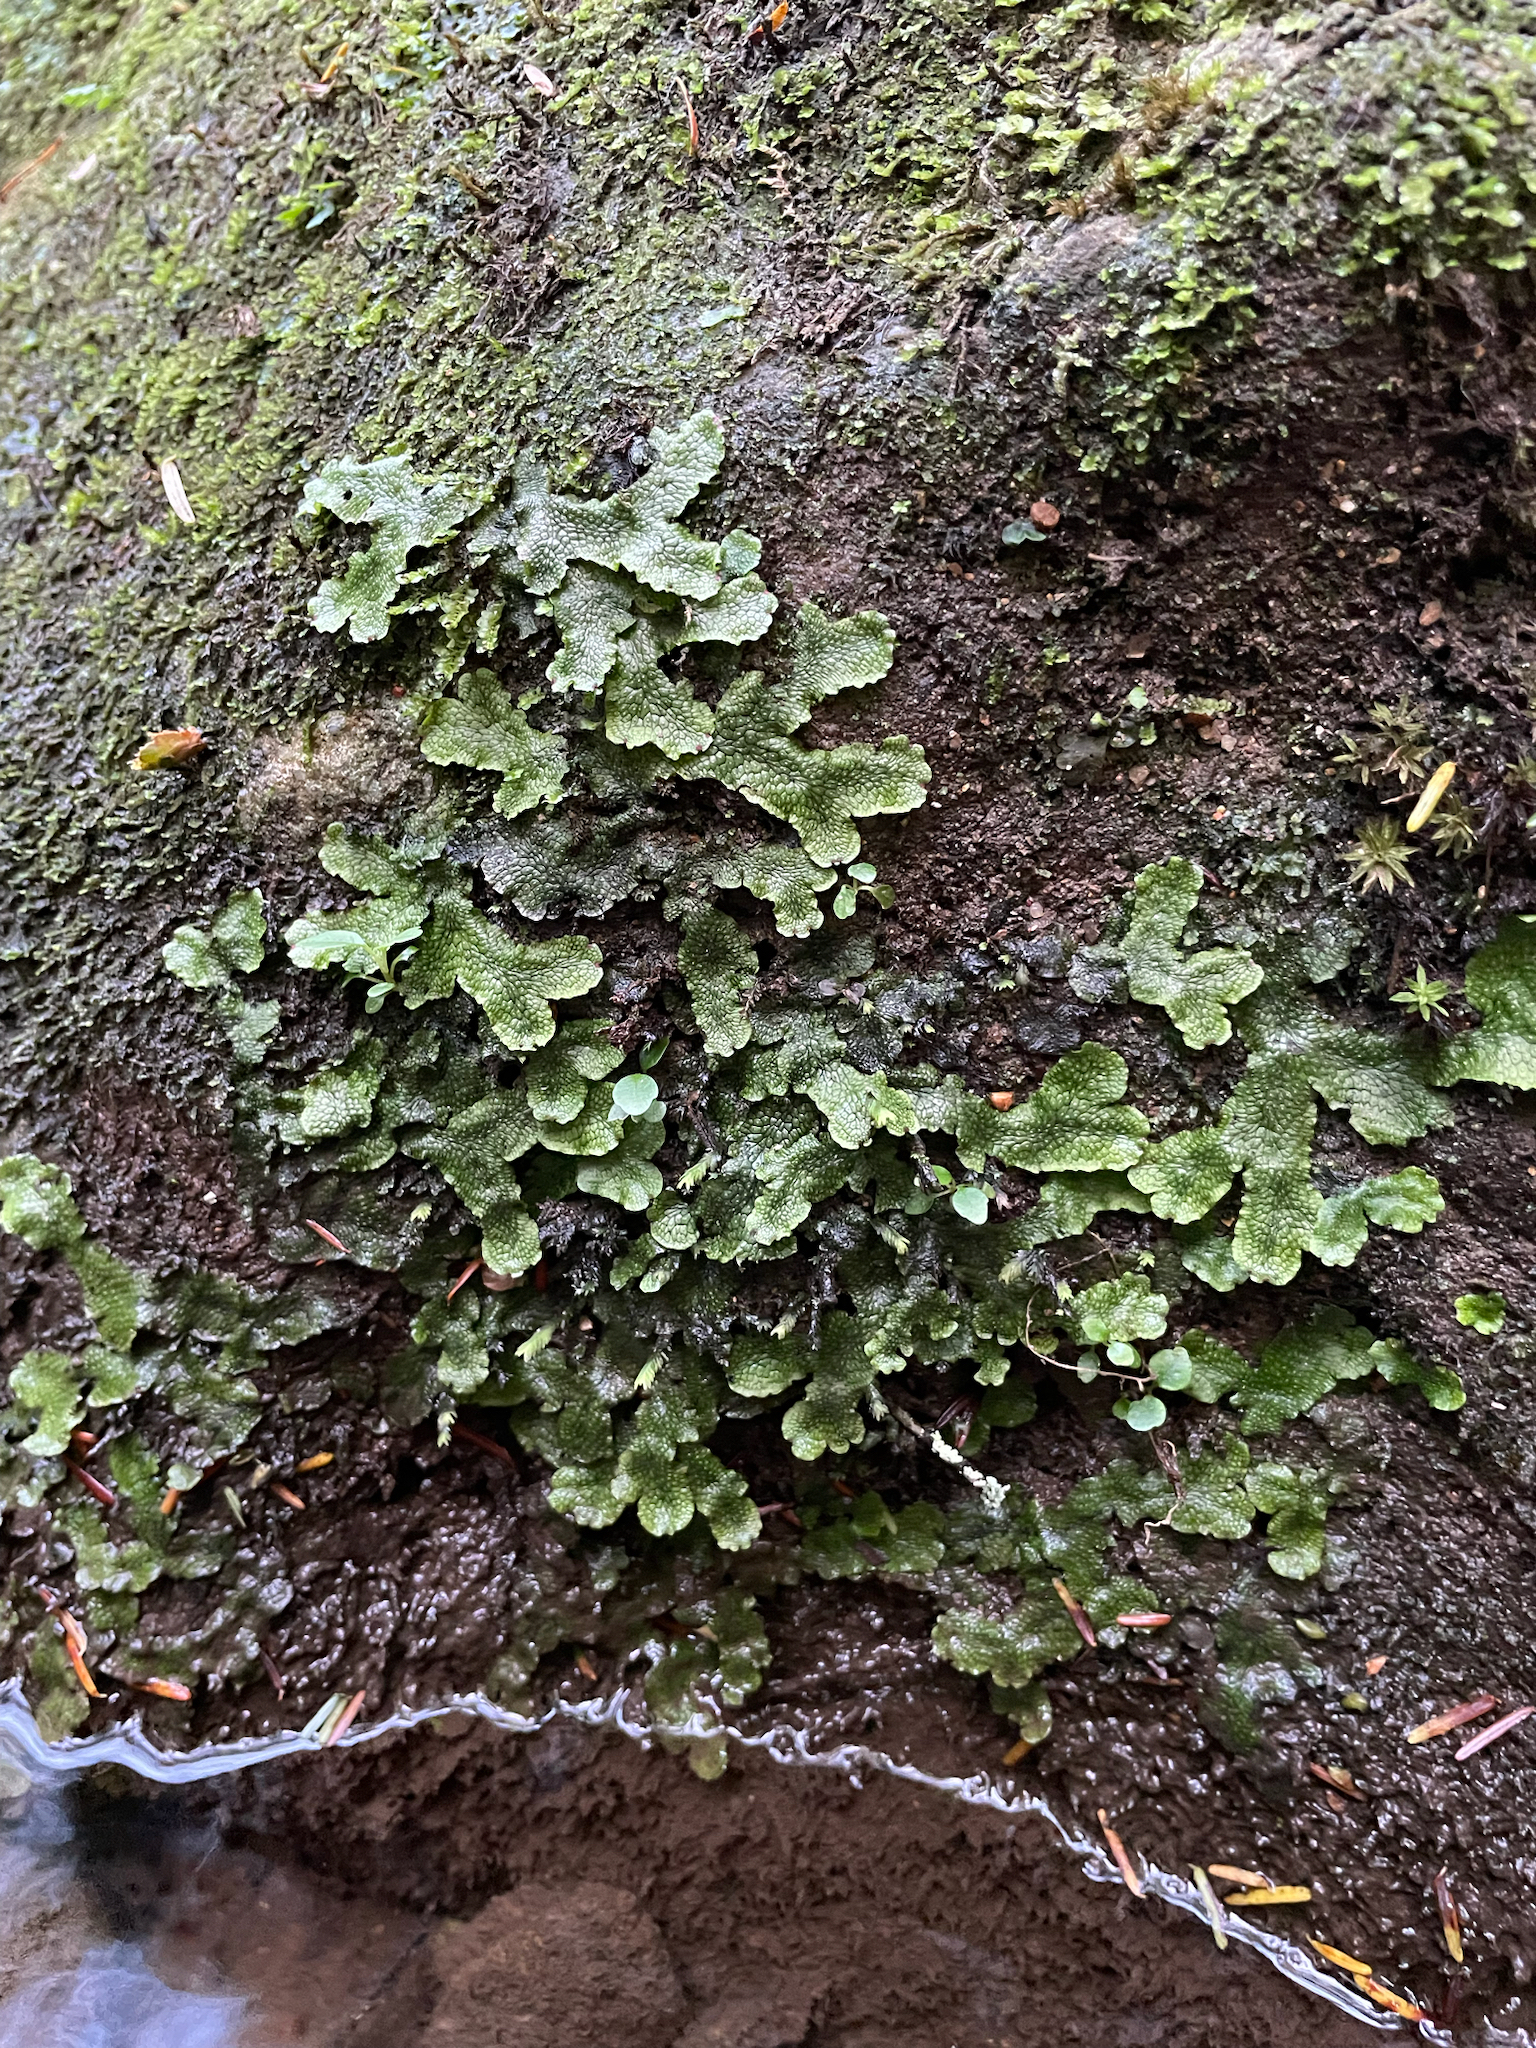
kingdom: Plantae
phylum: Marchantiophyta
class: Marchantiopsida
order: Marchantiales
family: Conocephalaceae
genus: Conocephalum
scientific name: Conocephalum salebrosum
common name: Cat-tongue liverwort
